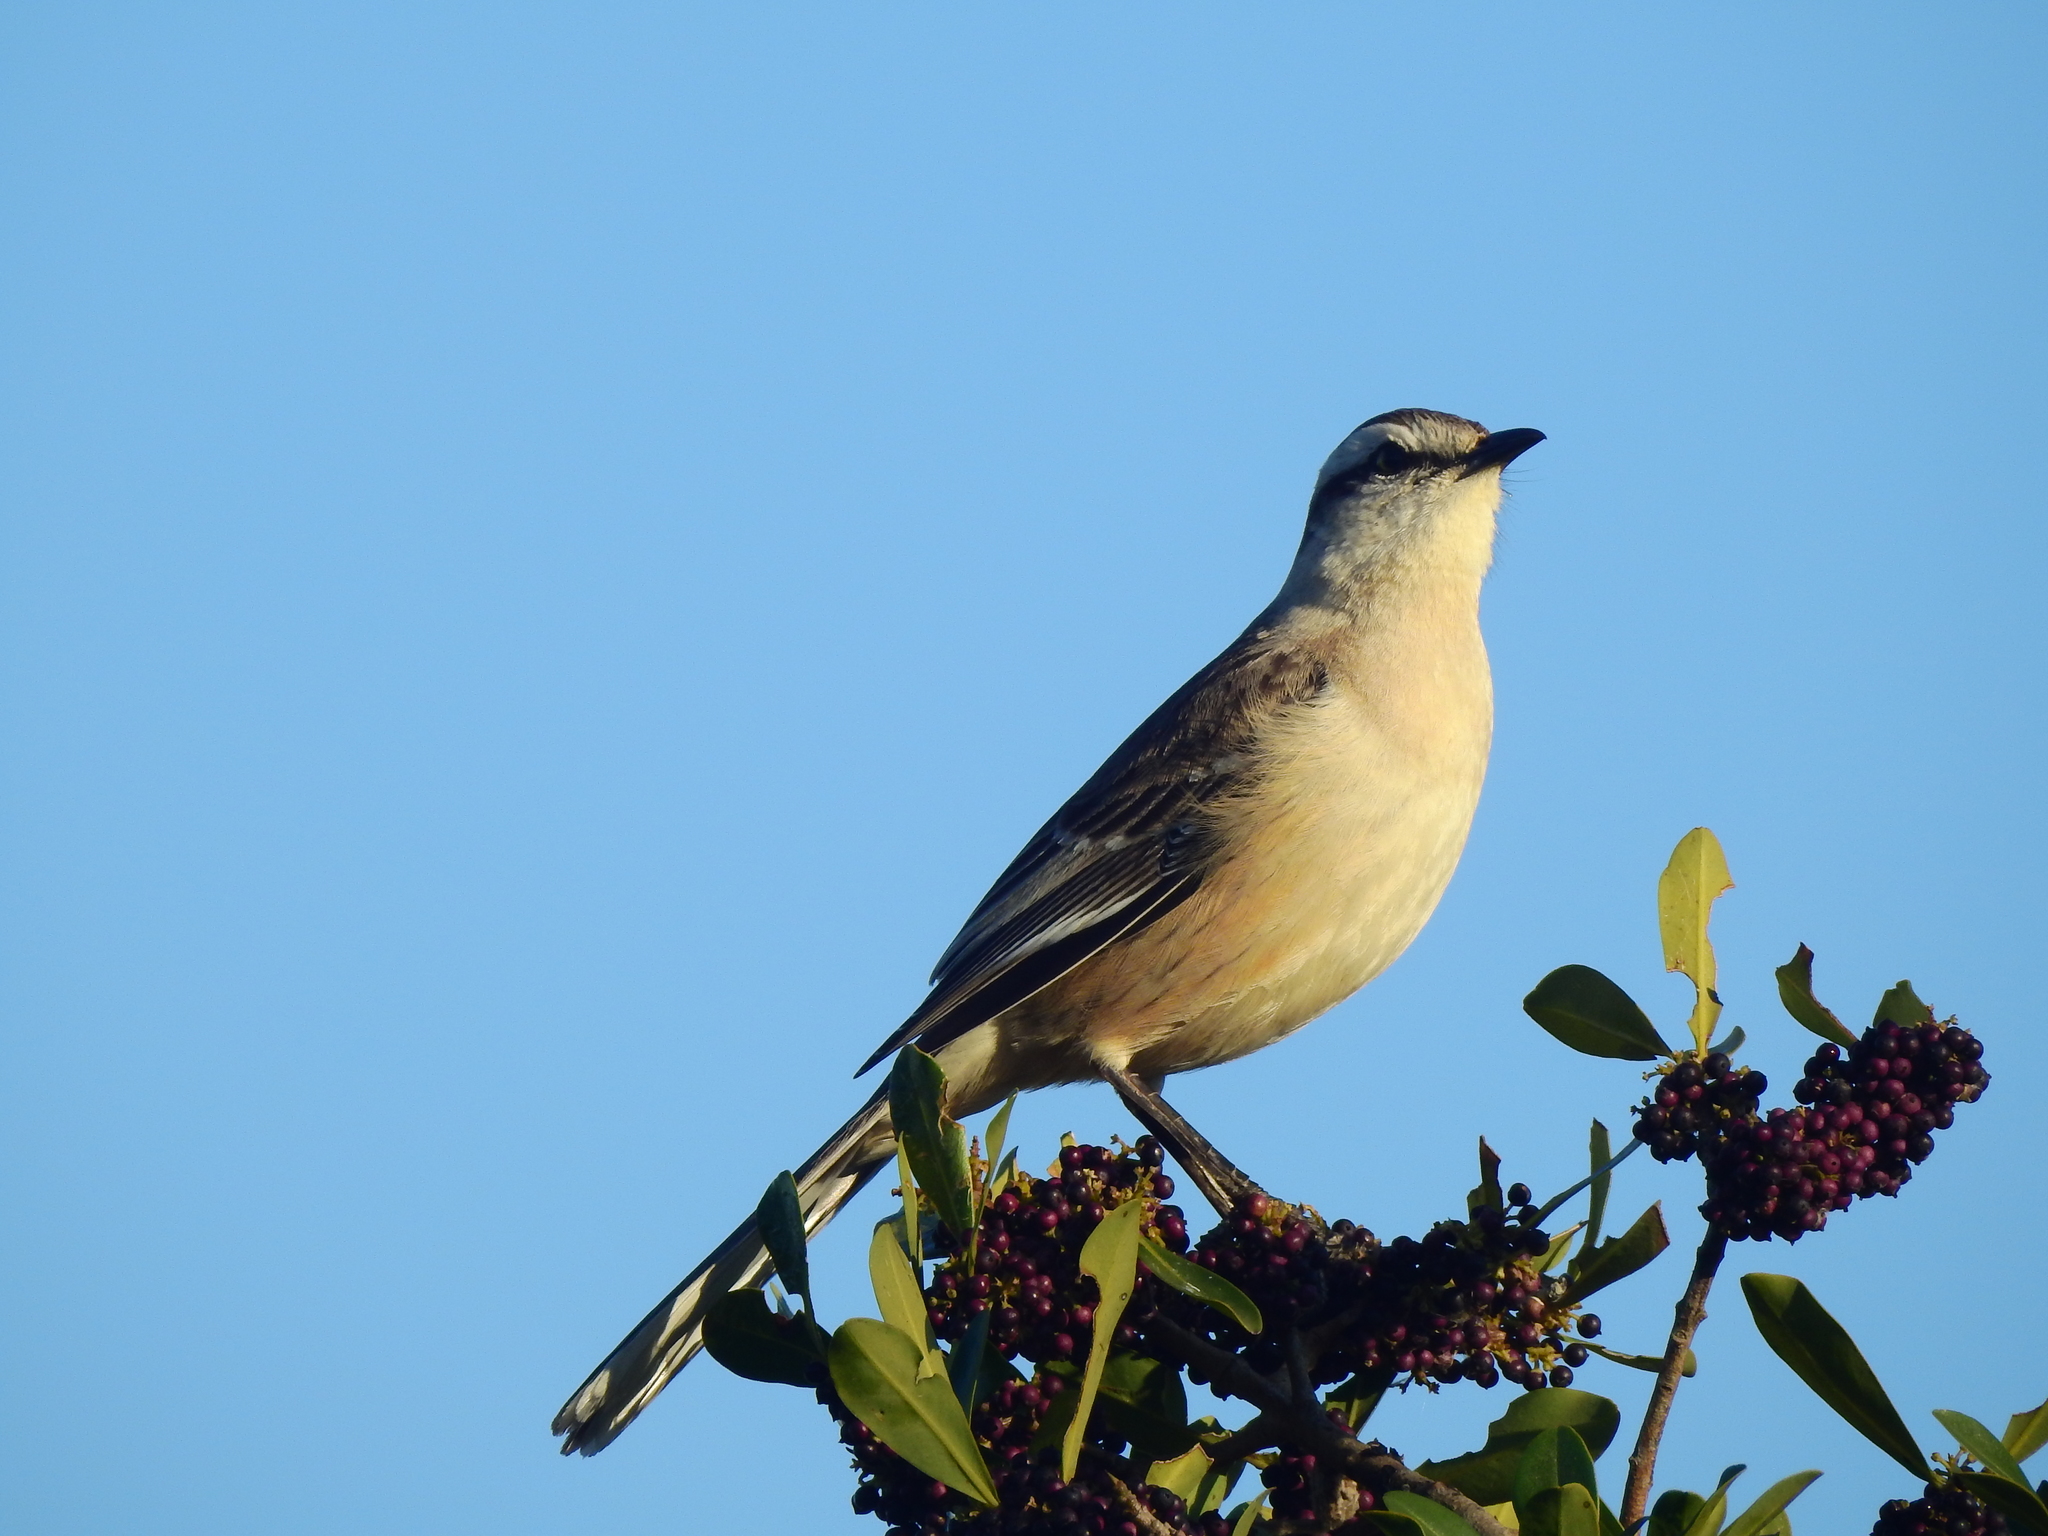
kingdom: Animalia
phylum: Chordata
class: Aves
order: Passeriformes
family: Mimidae
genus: Mimus
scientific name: Mimus saturninus
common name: Chalk-browed mockingbird
